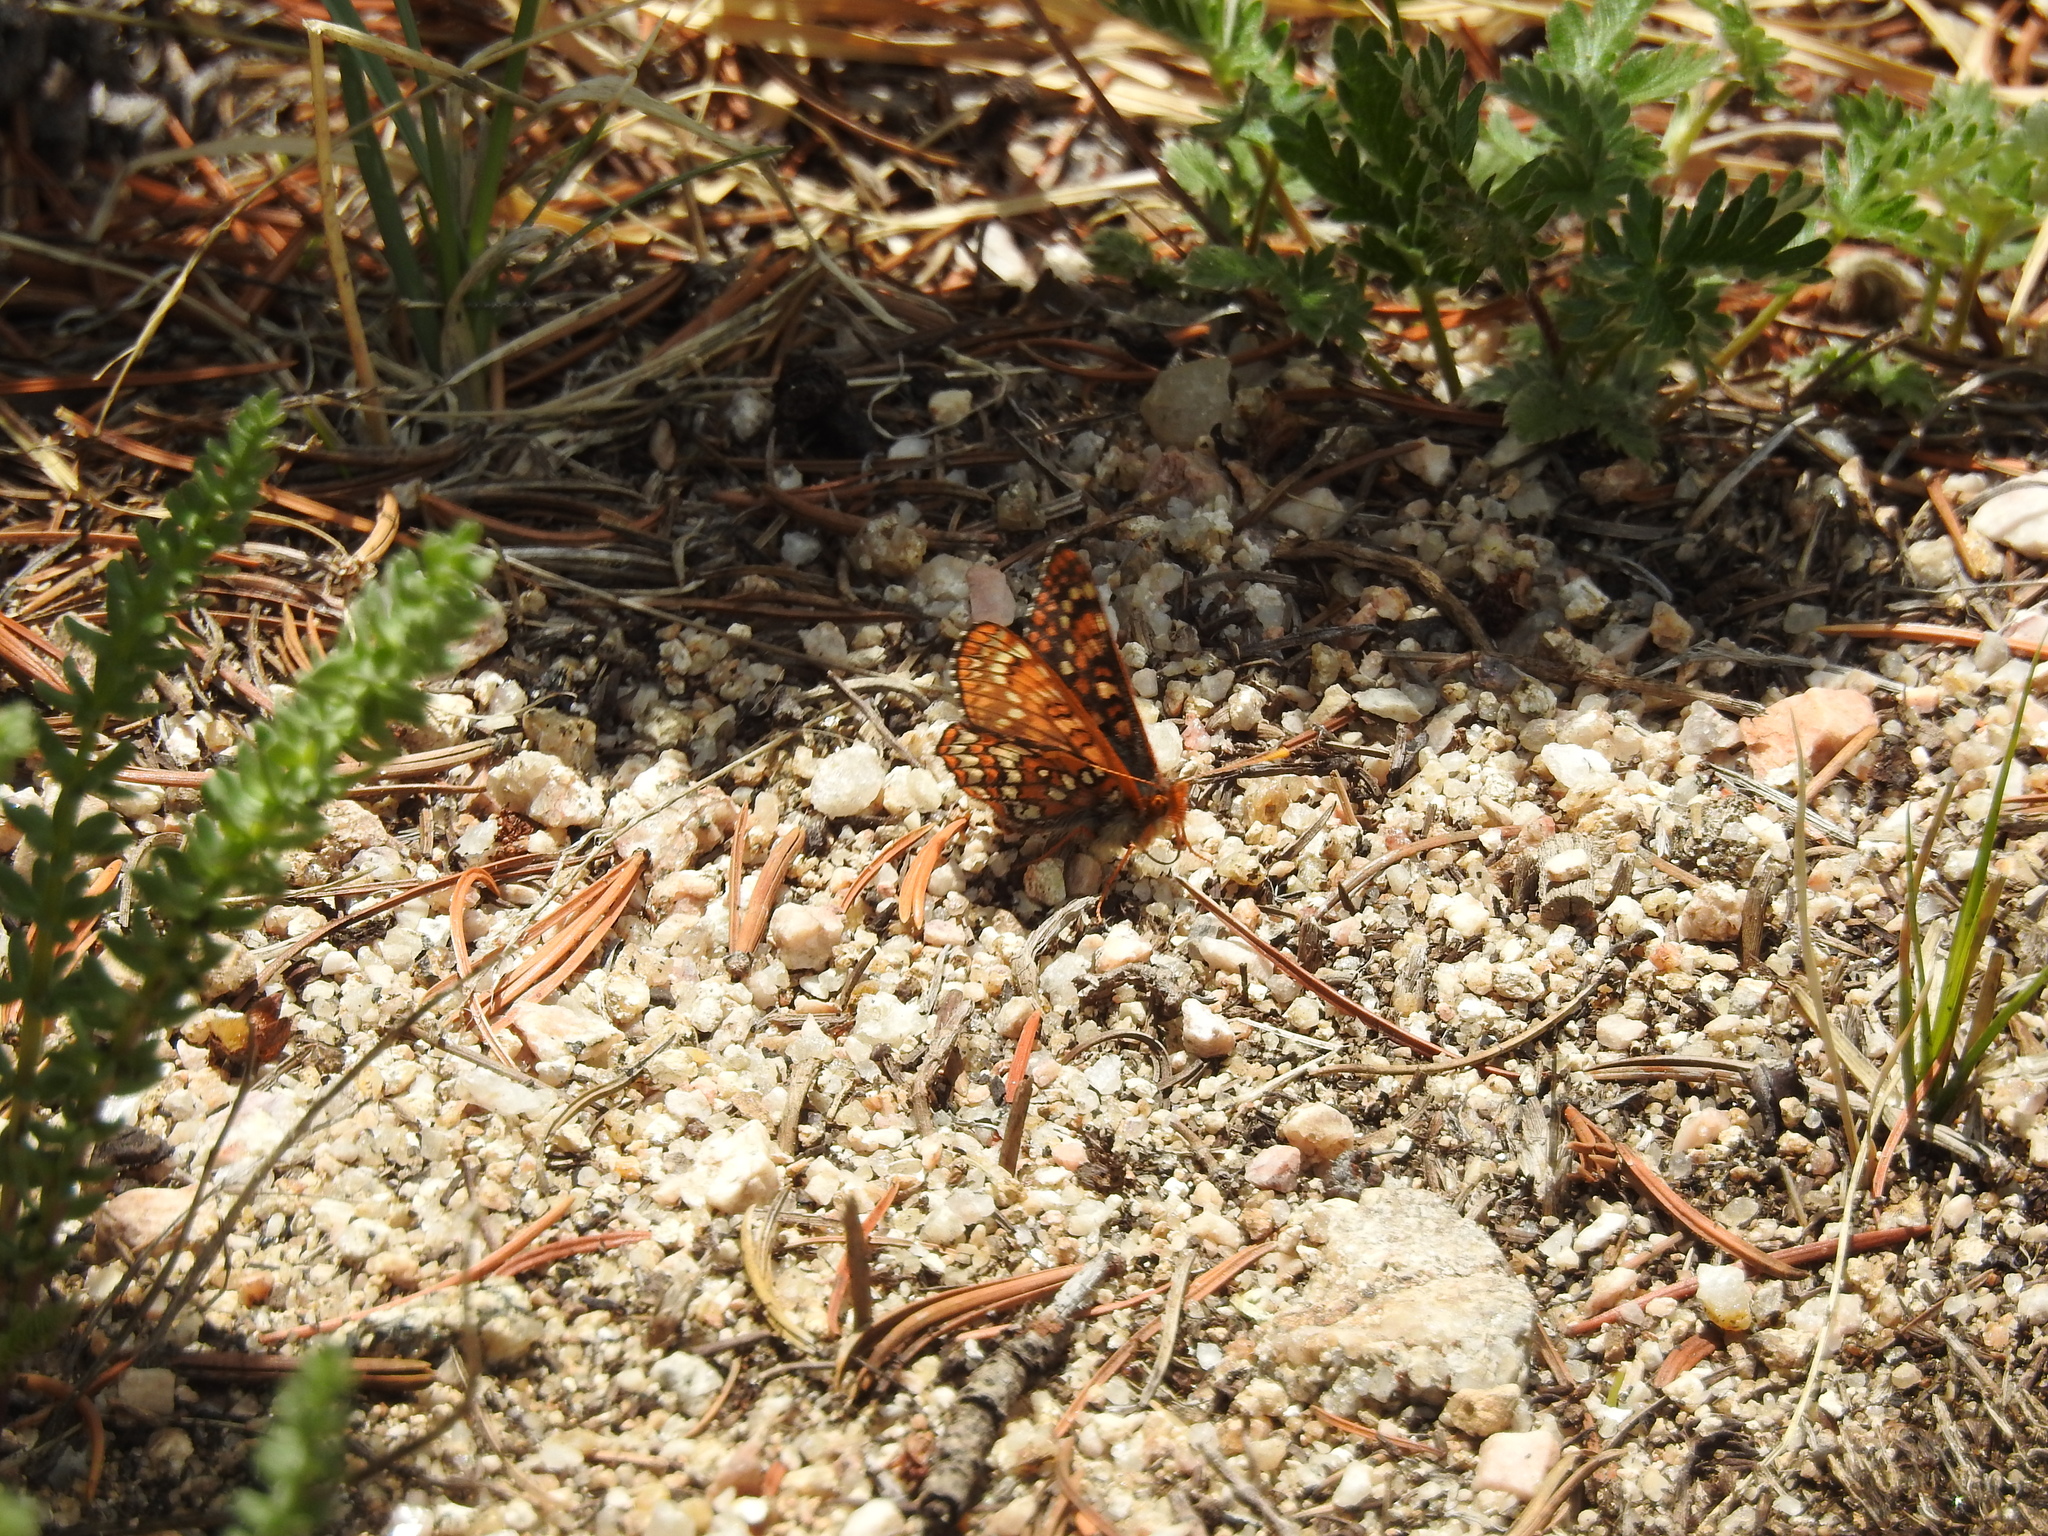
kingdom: Animalia
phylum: Arthropoda
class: Insecta
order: Lepidoptera
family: Nymphalidae
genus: Occidryas
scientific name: Occidryas anicia
